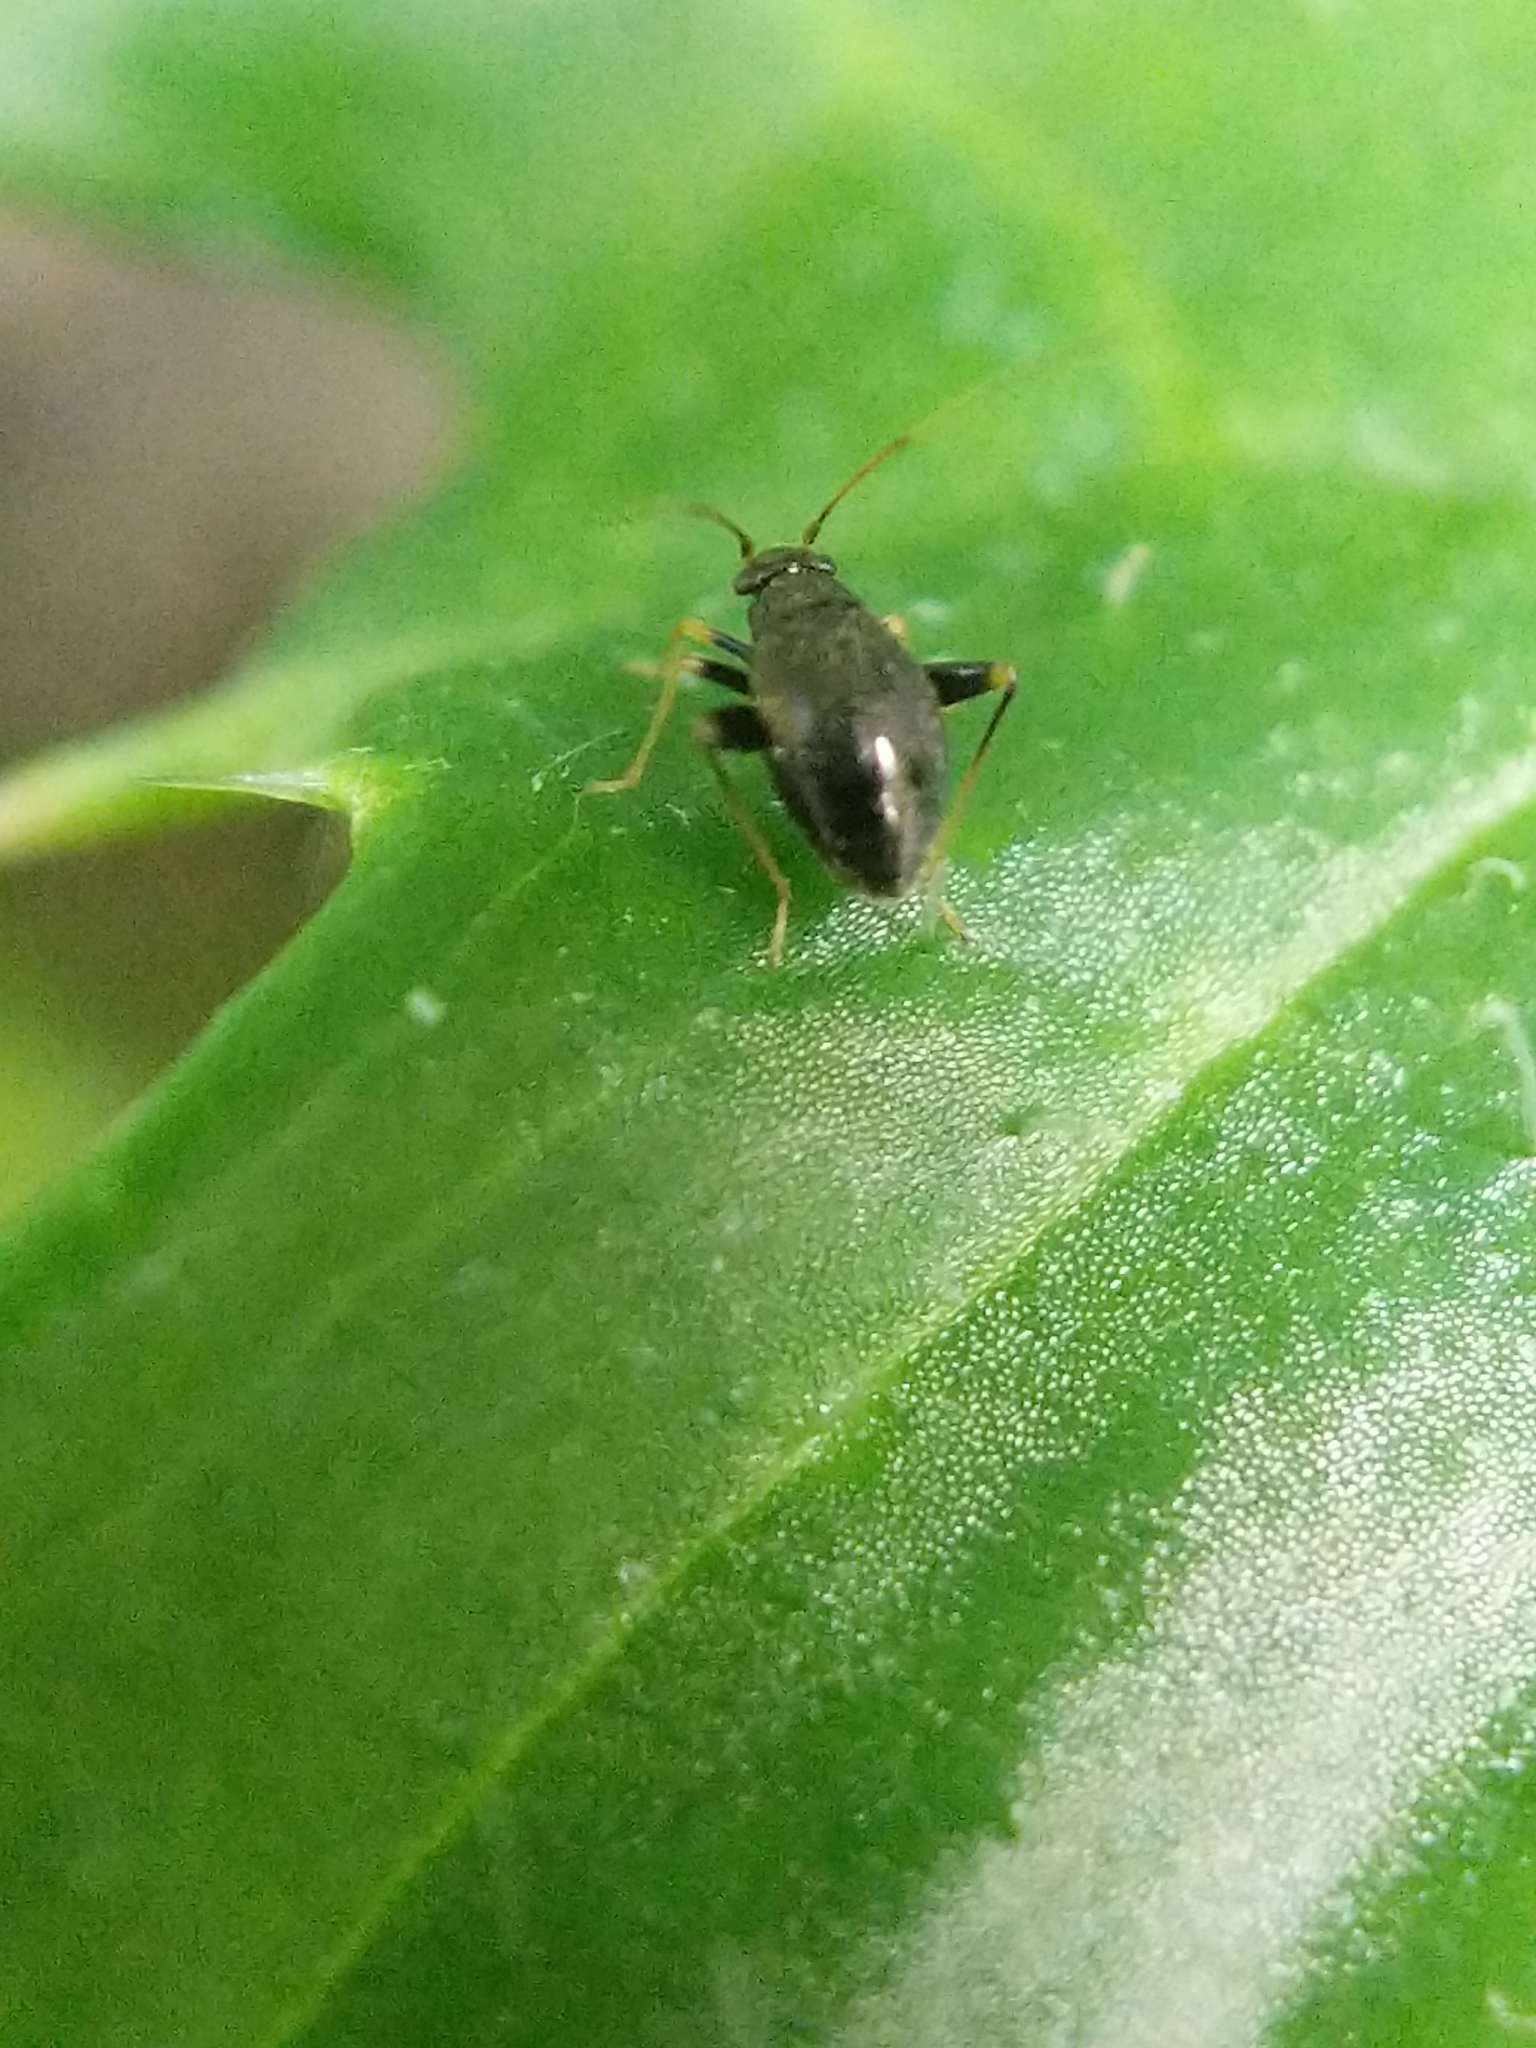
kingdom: Animalia
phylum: Arthropoda
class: Insecta
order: Hemiptera
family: Miridae
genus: Microtechnites
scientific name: Microtechnites bractatus
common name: Garden fleahopper
